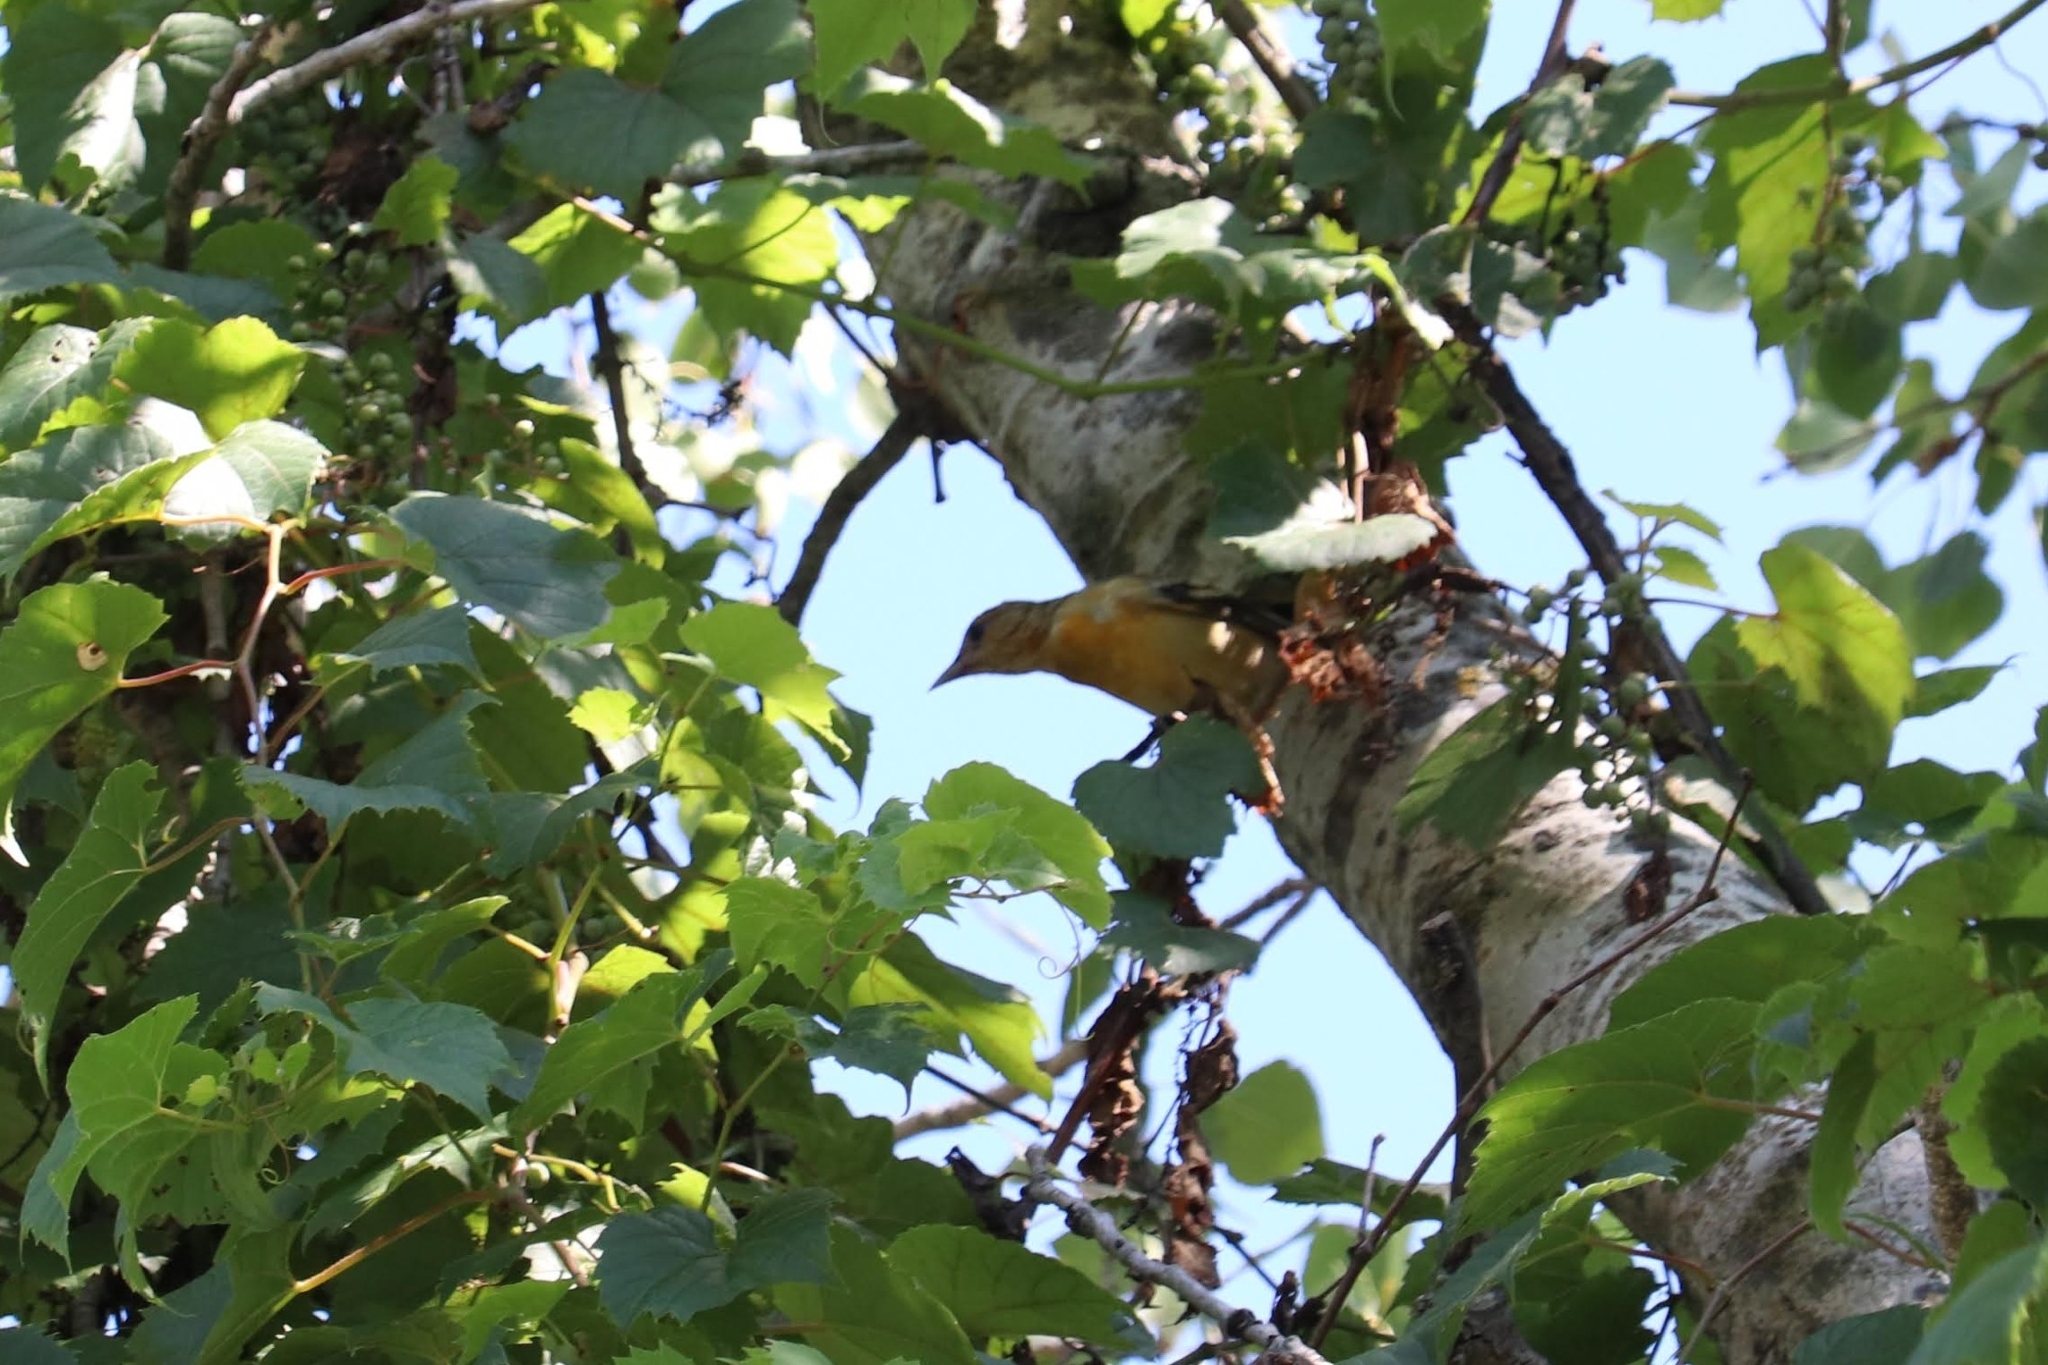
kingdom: Animalia
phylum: Chordata
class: Aves
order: Passeriformes
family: Icteridae
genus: Icterus
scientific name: Icterus galbula
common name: Baltimore oriole
